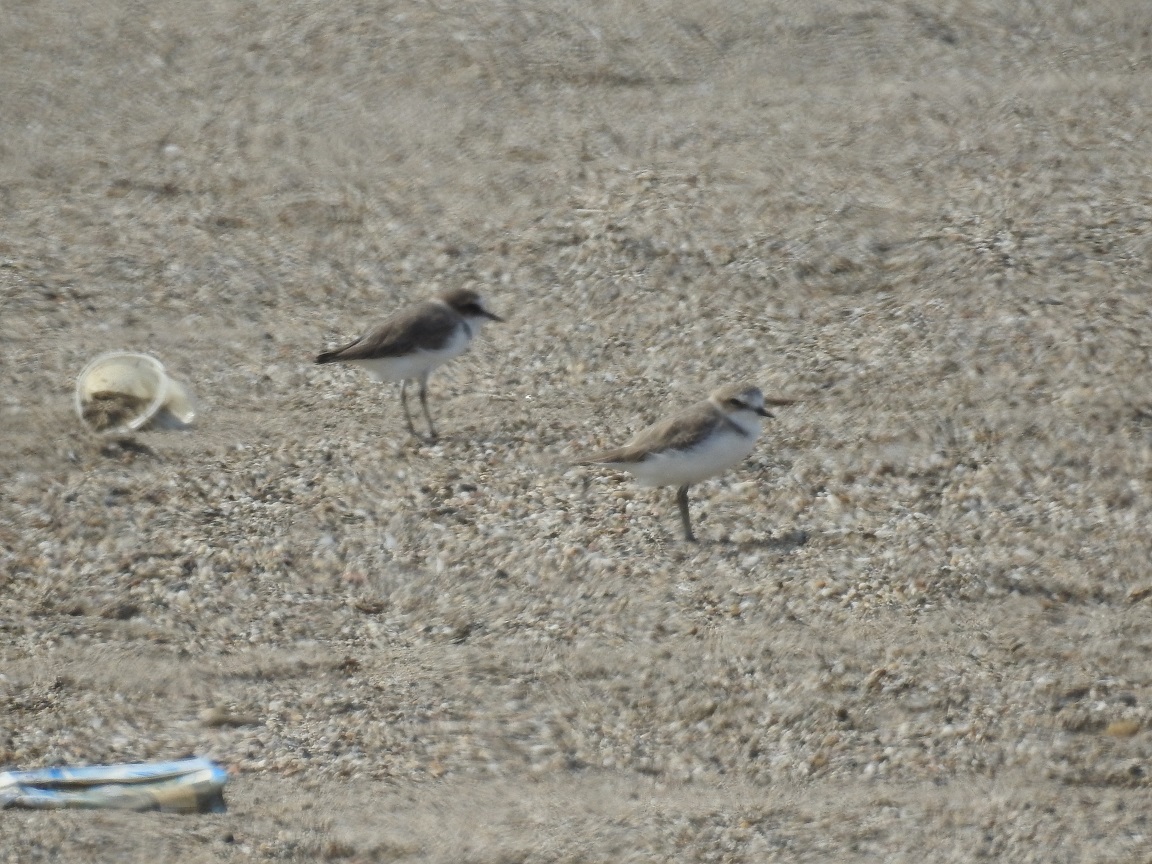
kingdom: Animalia
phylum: Chordata
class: Aves
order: Charadriiformes
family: Charadriidae
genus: Charadrius
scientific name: Charadrius alexandrinus
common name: Kentish plover
